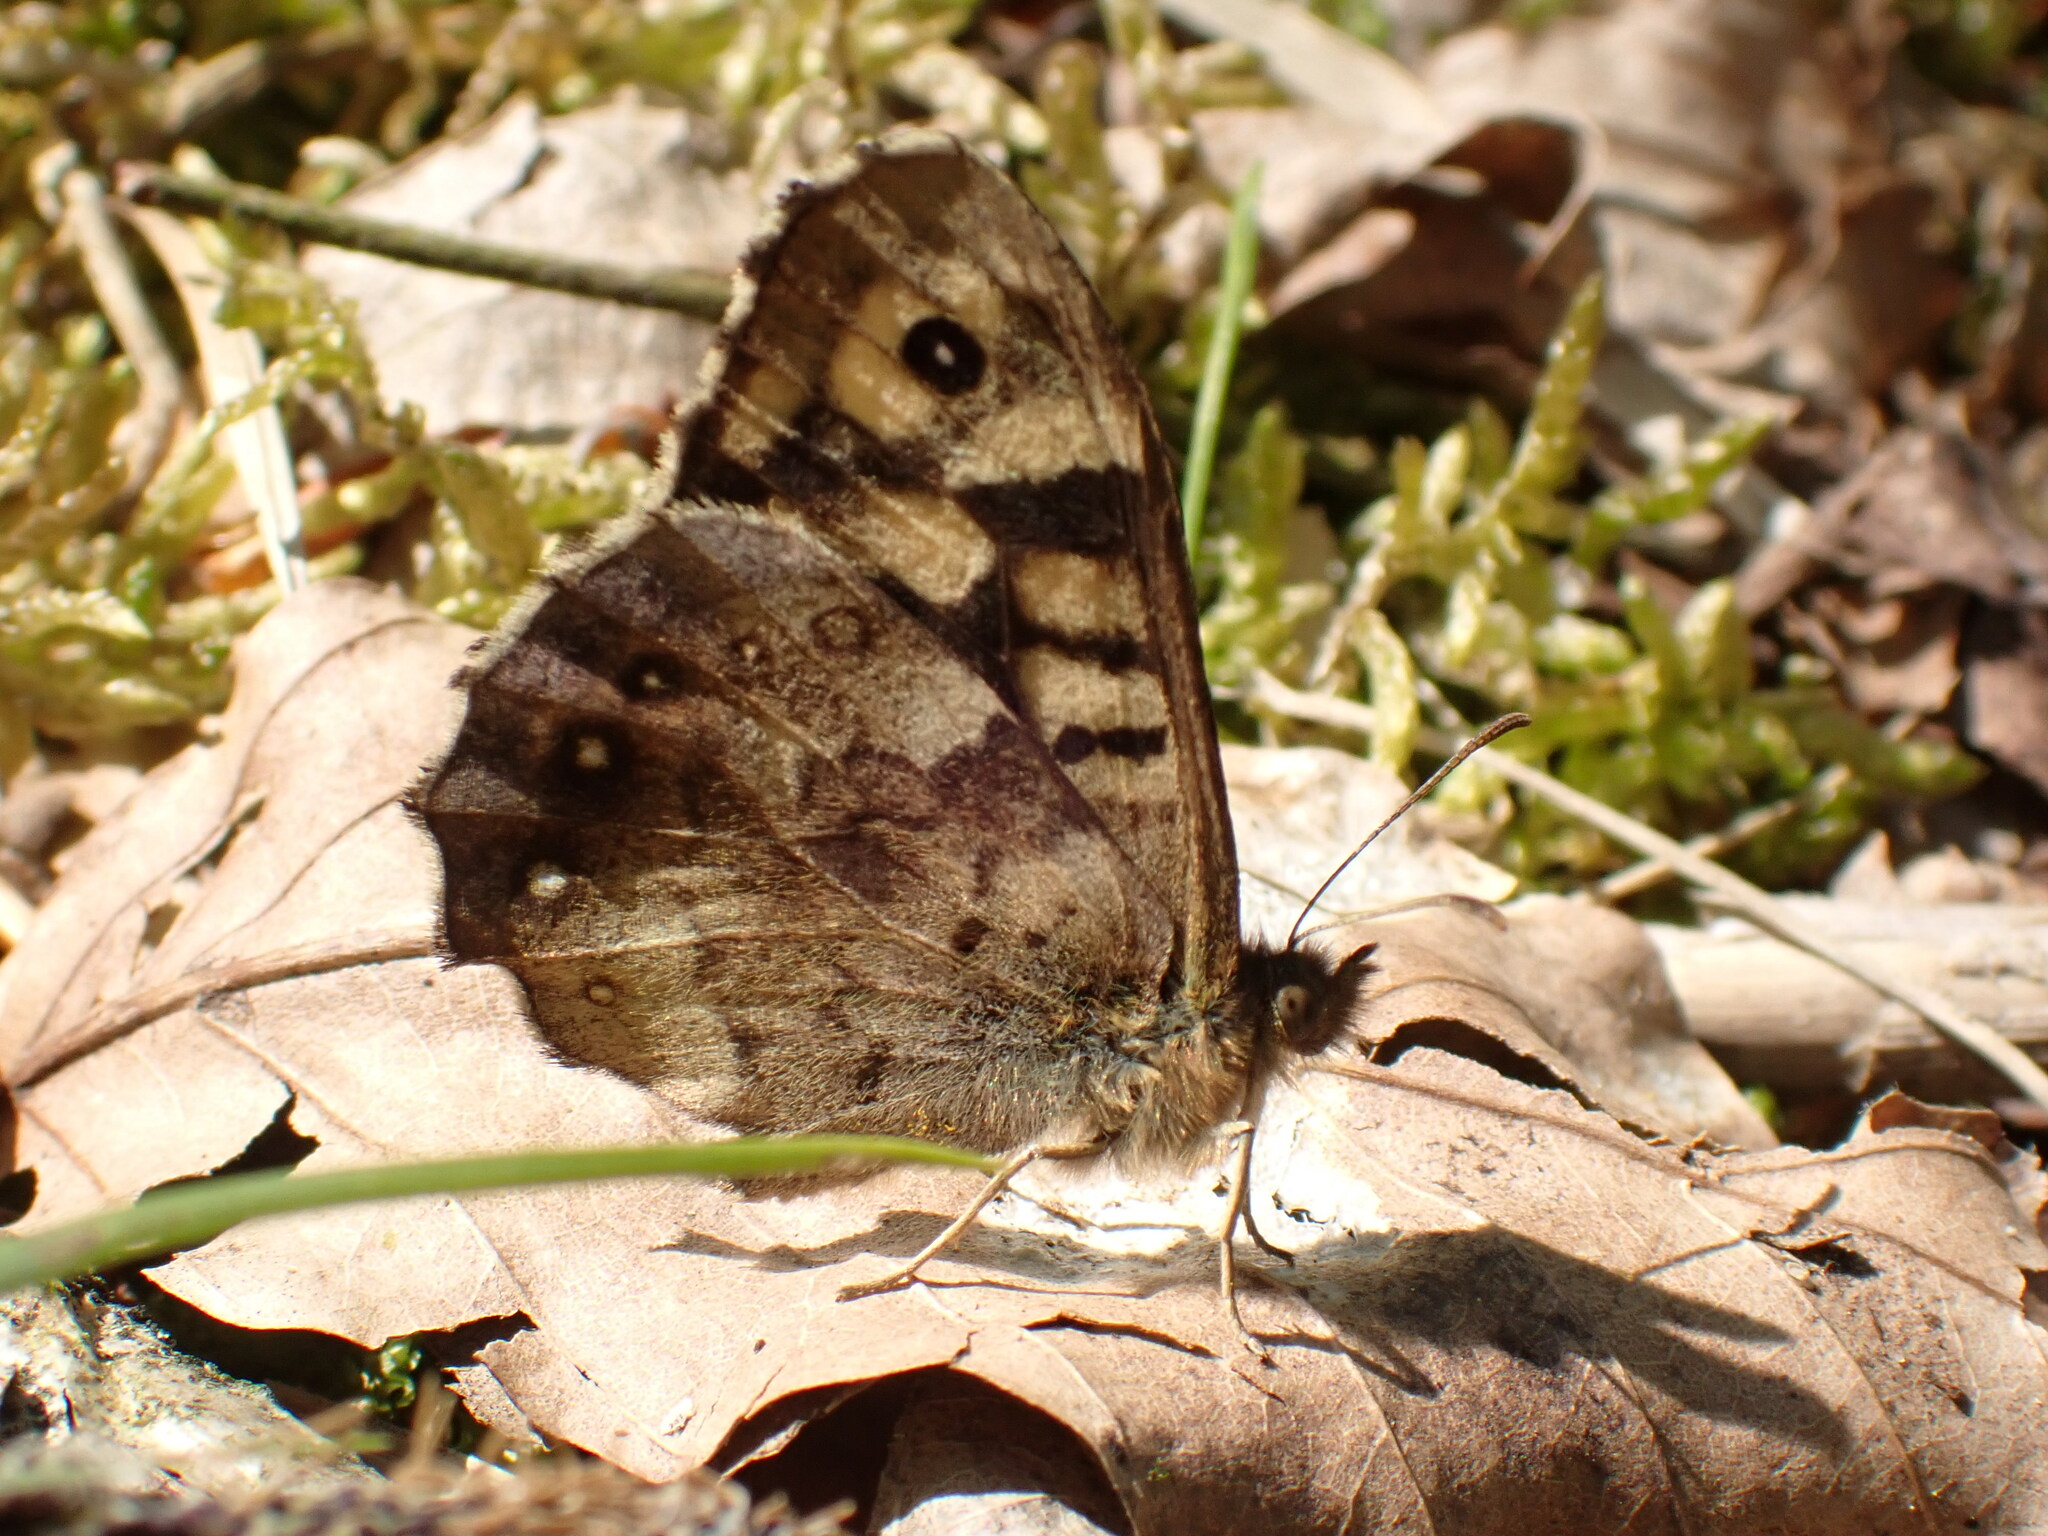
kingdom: Animalia
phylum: Arthropoda
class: Insecta
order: Lepidoptera
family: Nymphalidae
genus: Pararge
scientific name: Pararge aegeria
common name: Speckled wood
